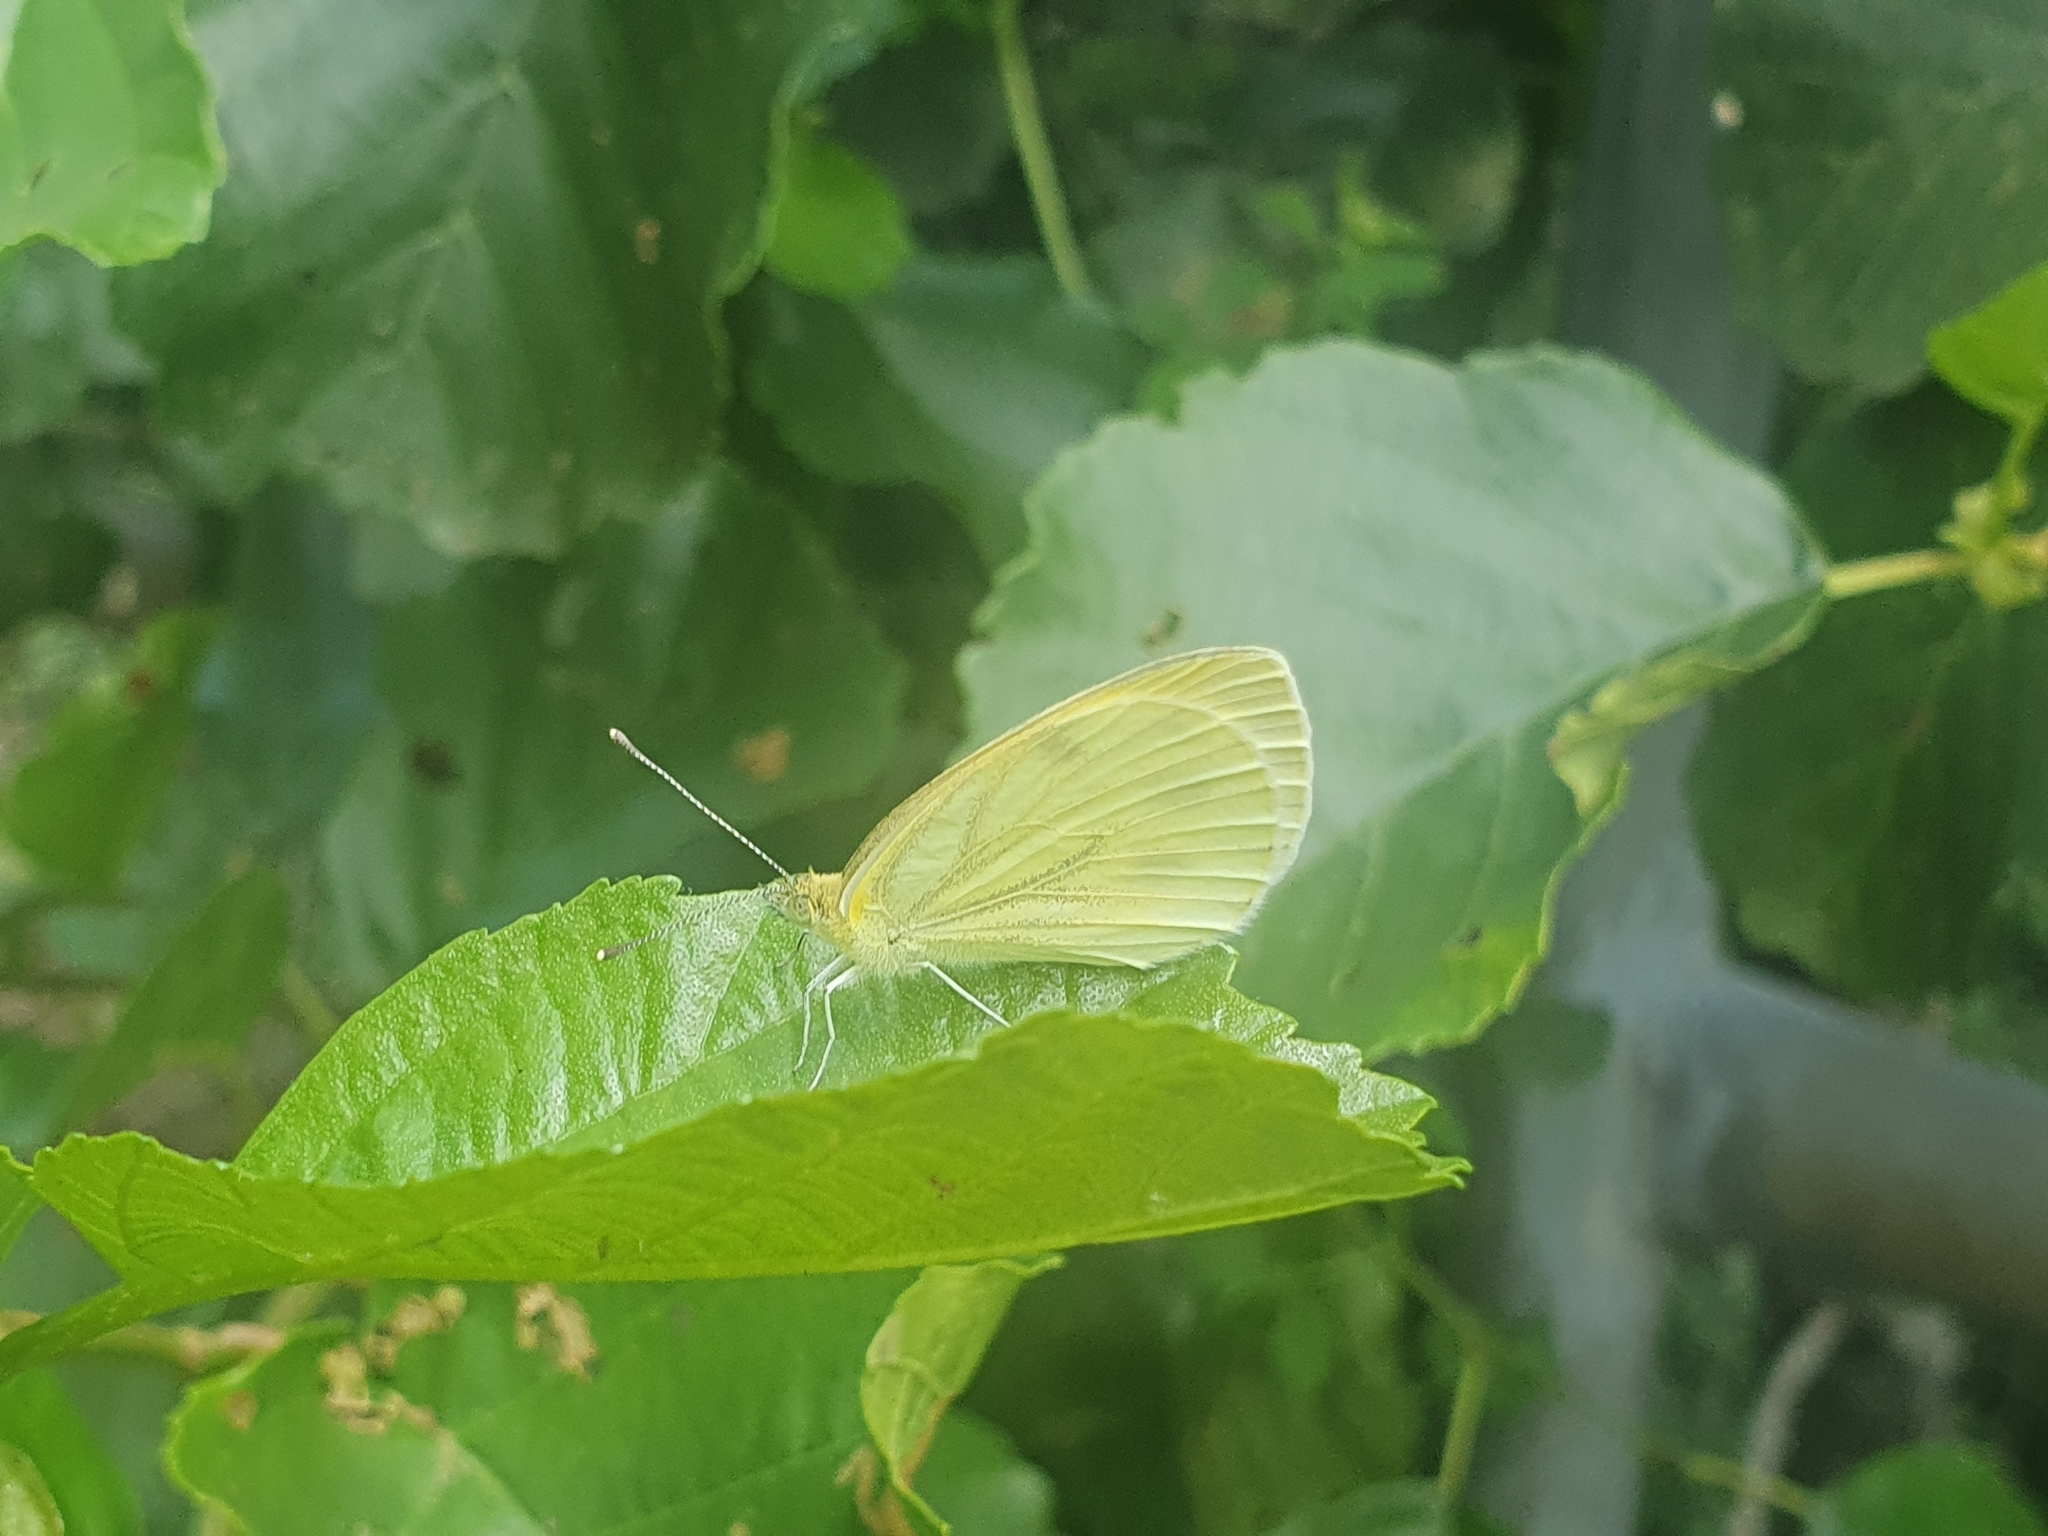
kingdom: Animalia
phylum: Arthropoda
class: Insecta
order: Lepidoptera
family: Pieridae
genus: Pieris
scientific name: Pieris napi
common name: Green-veined white
